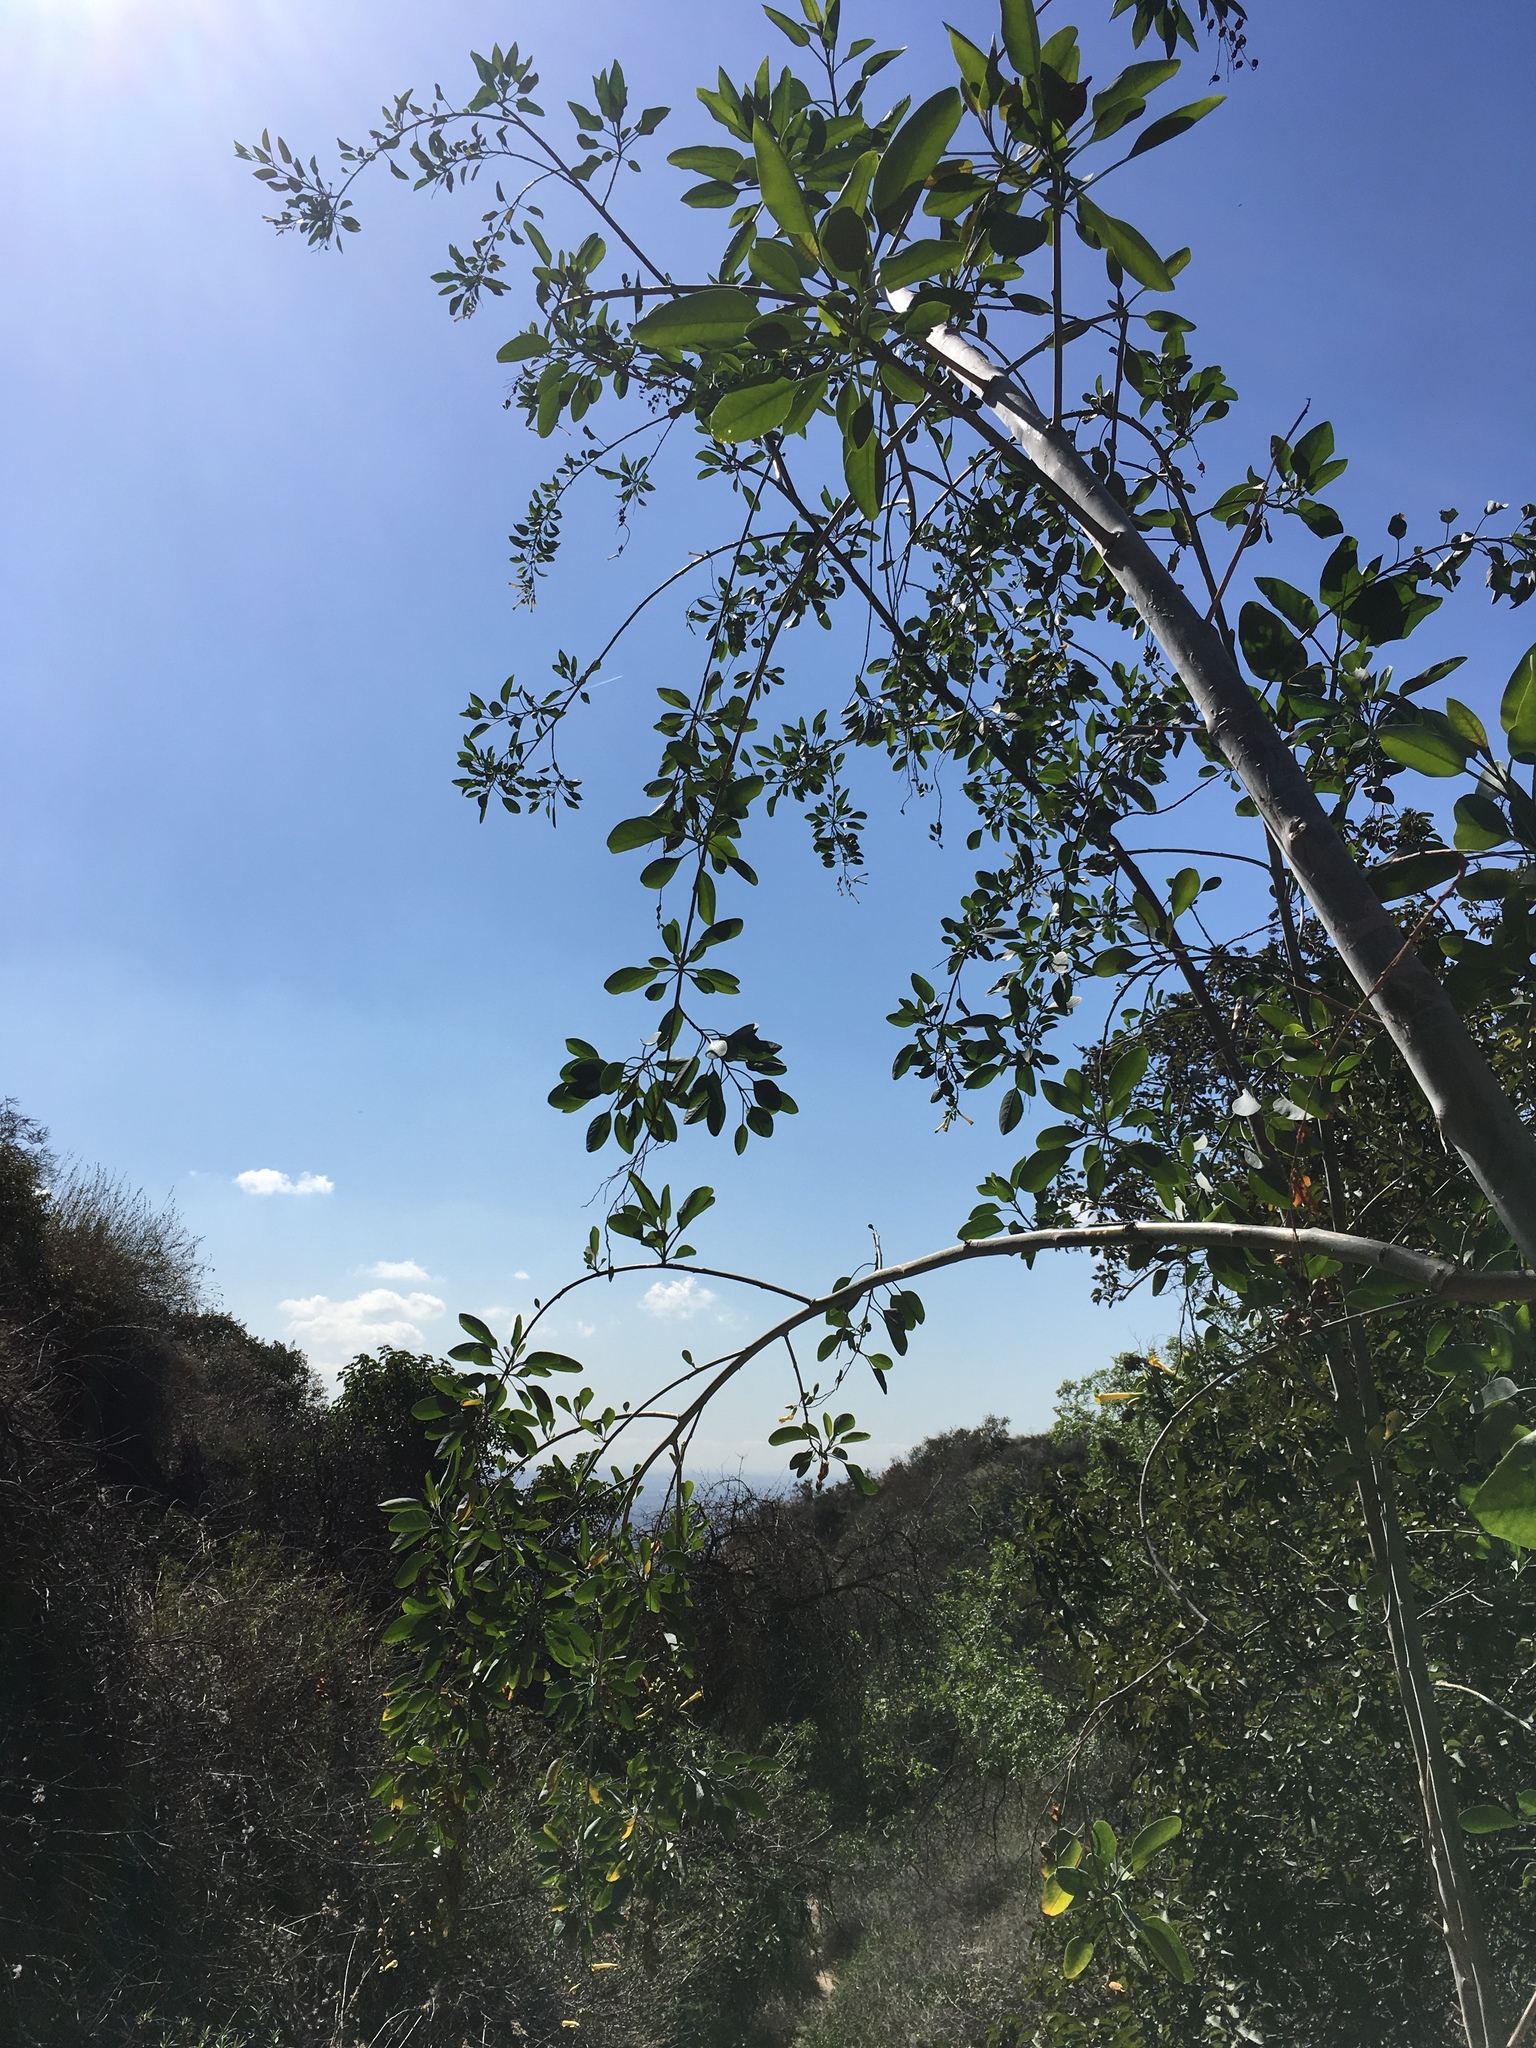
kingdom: Plantae
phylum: Tracheophyta
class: Magnoliopsida
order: Solanales
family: Solanaceae
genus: Nicotiana
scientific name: Nicotiana glauca
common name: Tree tobacco
